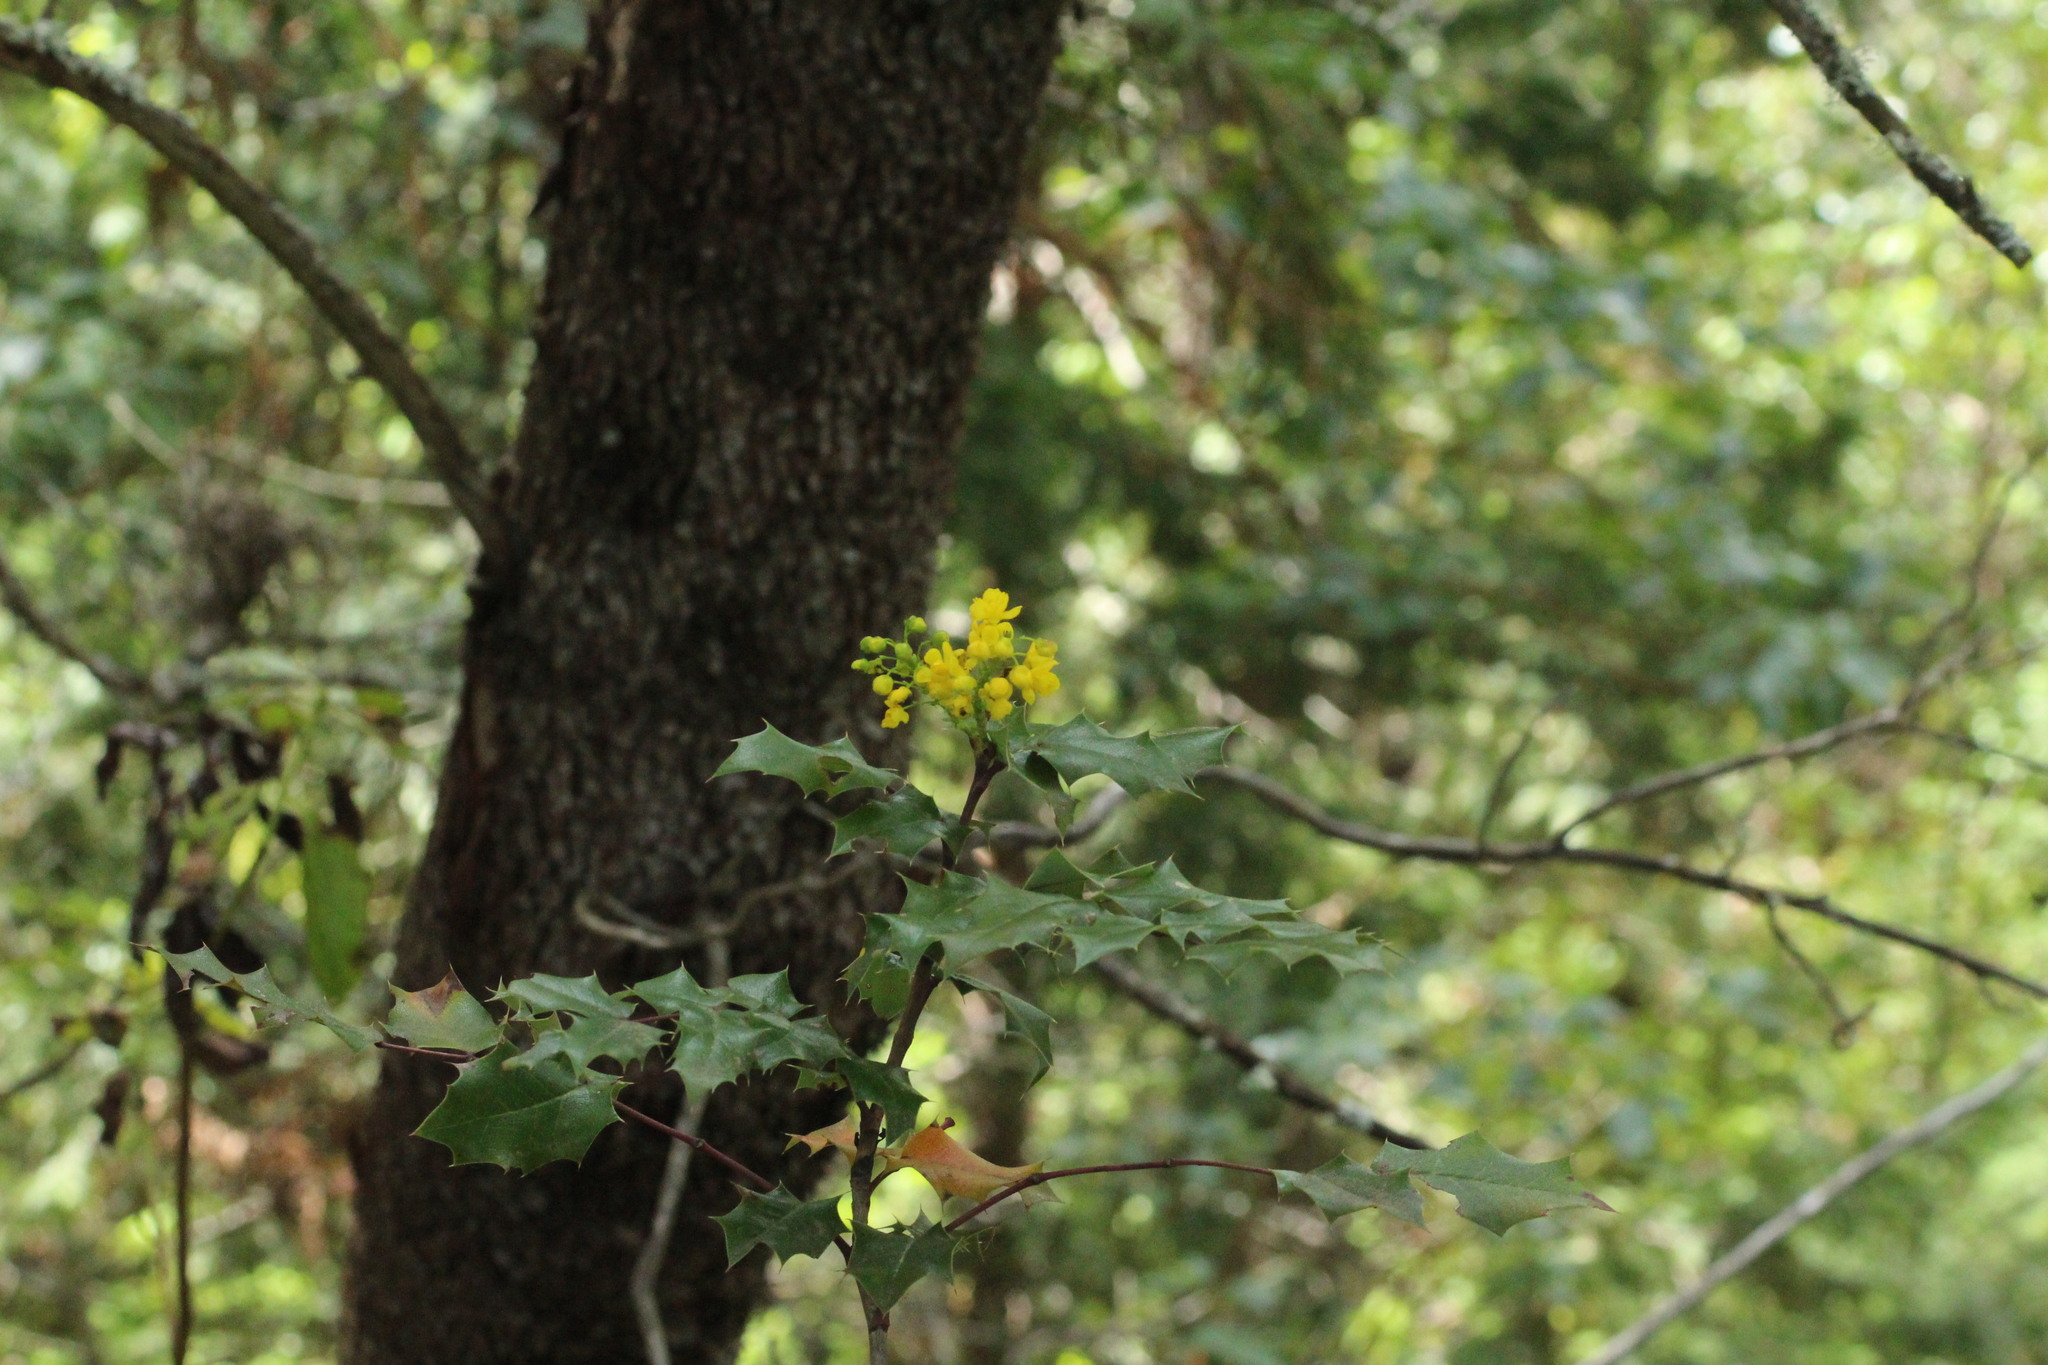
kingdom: Plantae
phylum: Tracheophyta
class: Magnoliopsida
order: Ranunculales
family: Berberidaceae
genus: Mahonia
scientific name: Mahonia aquifolium
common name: Oregon-grape
